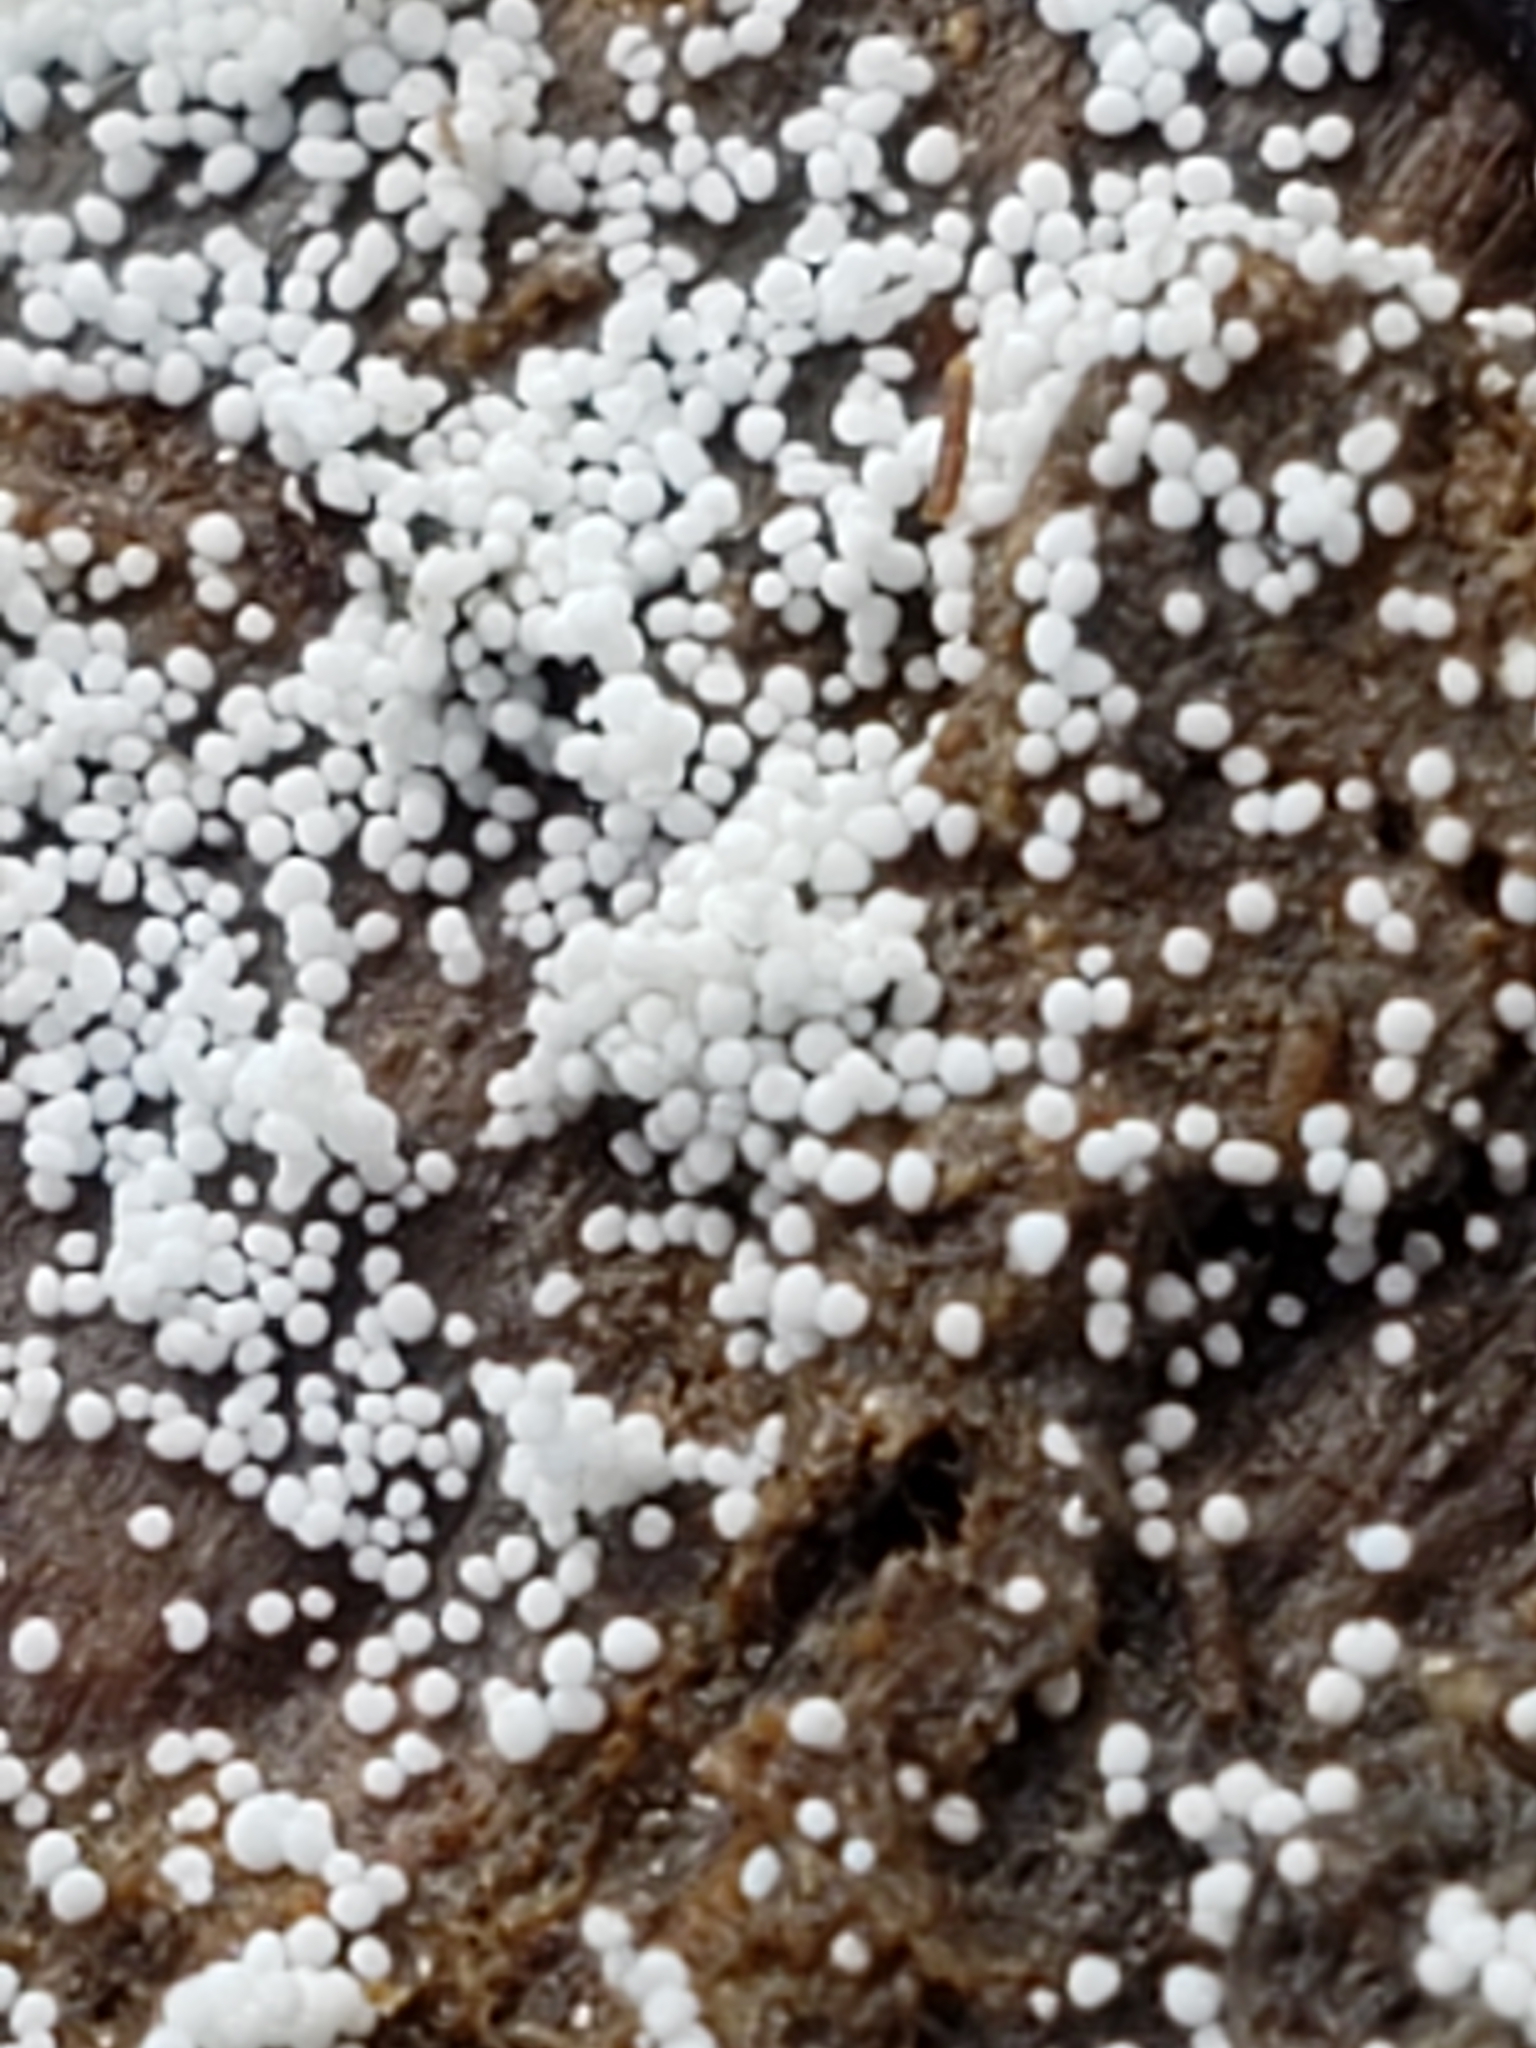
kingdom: Fungi
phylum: Basidiomycota
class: Agaricomycetes
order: Polyporales
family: Meruliaceae
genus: Bulbillomyces
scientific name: Bulbillomyces farinosus
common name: Couscous crust
